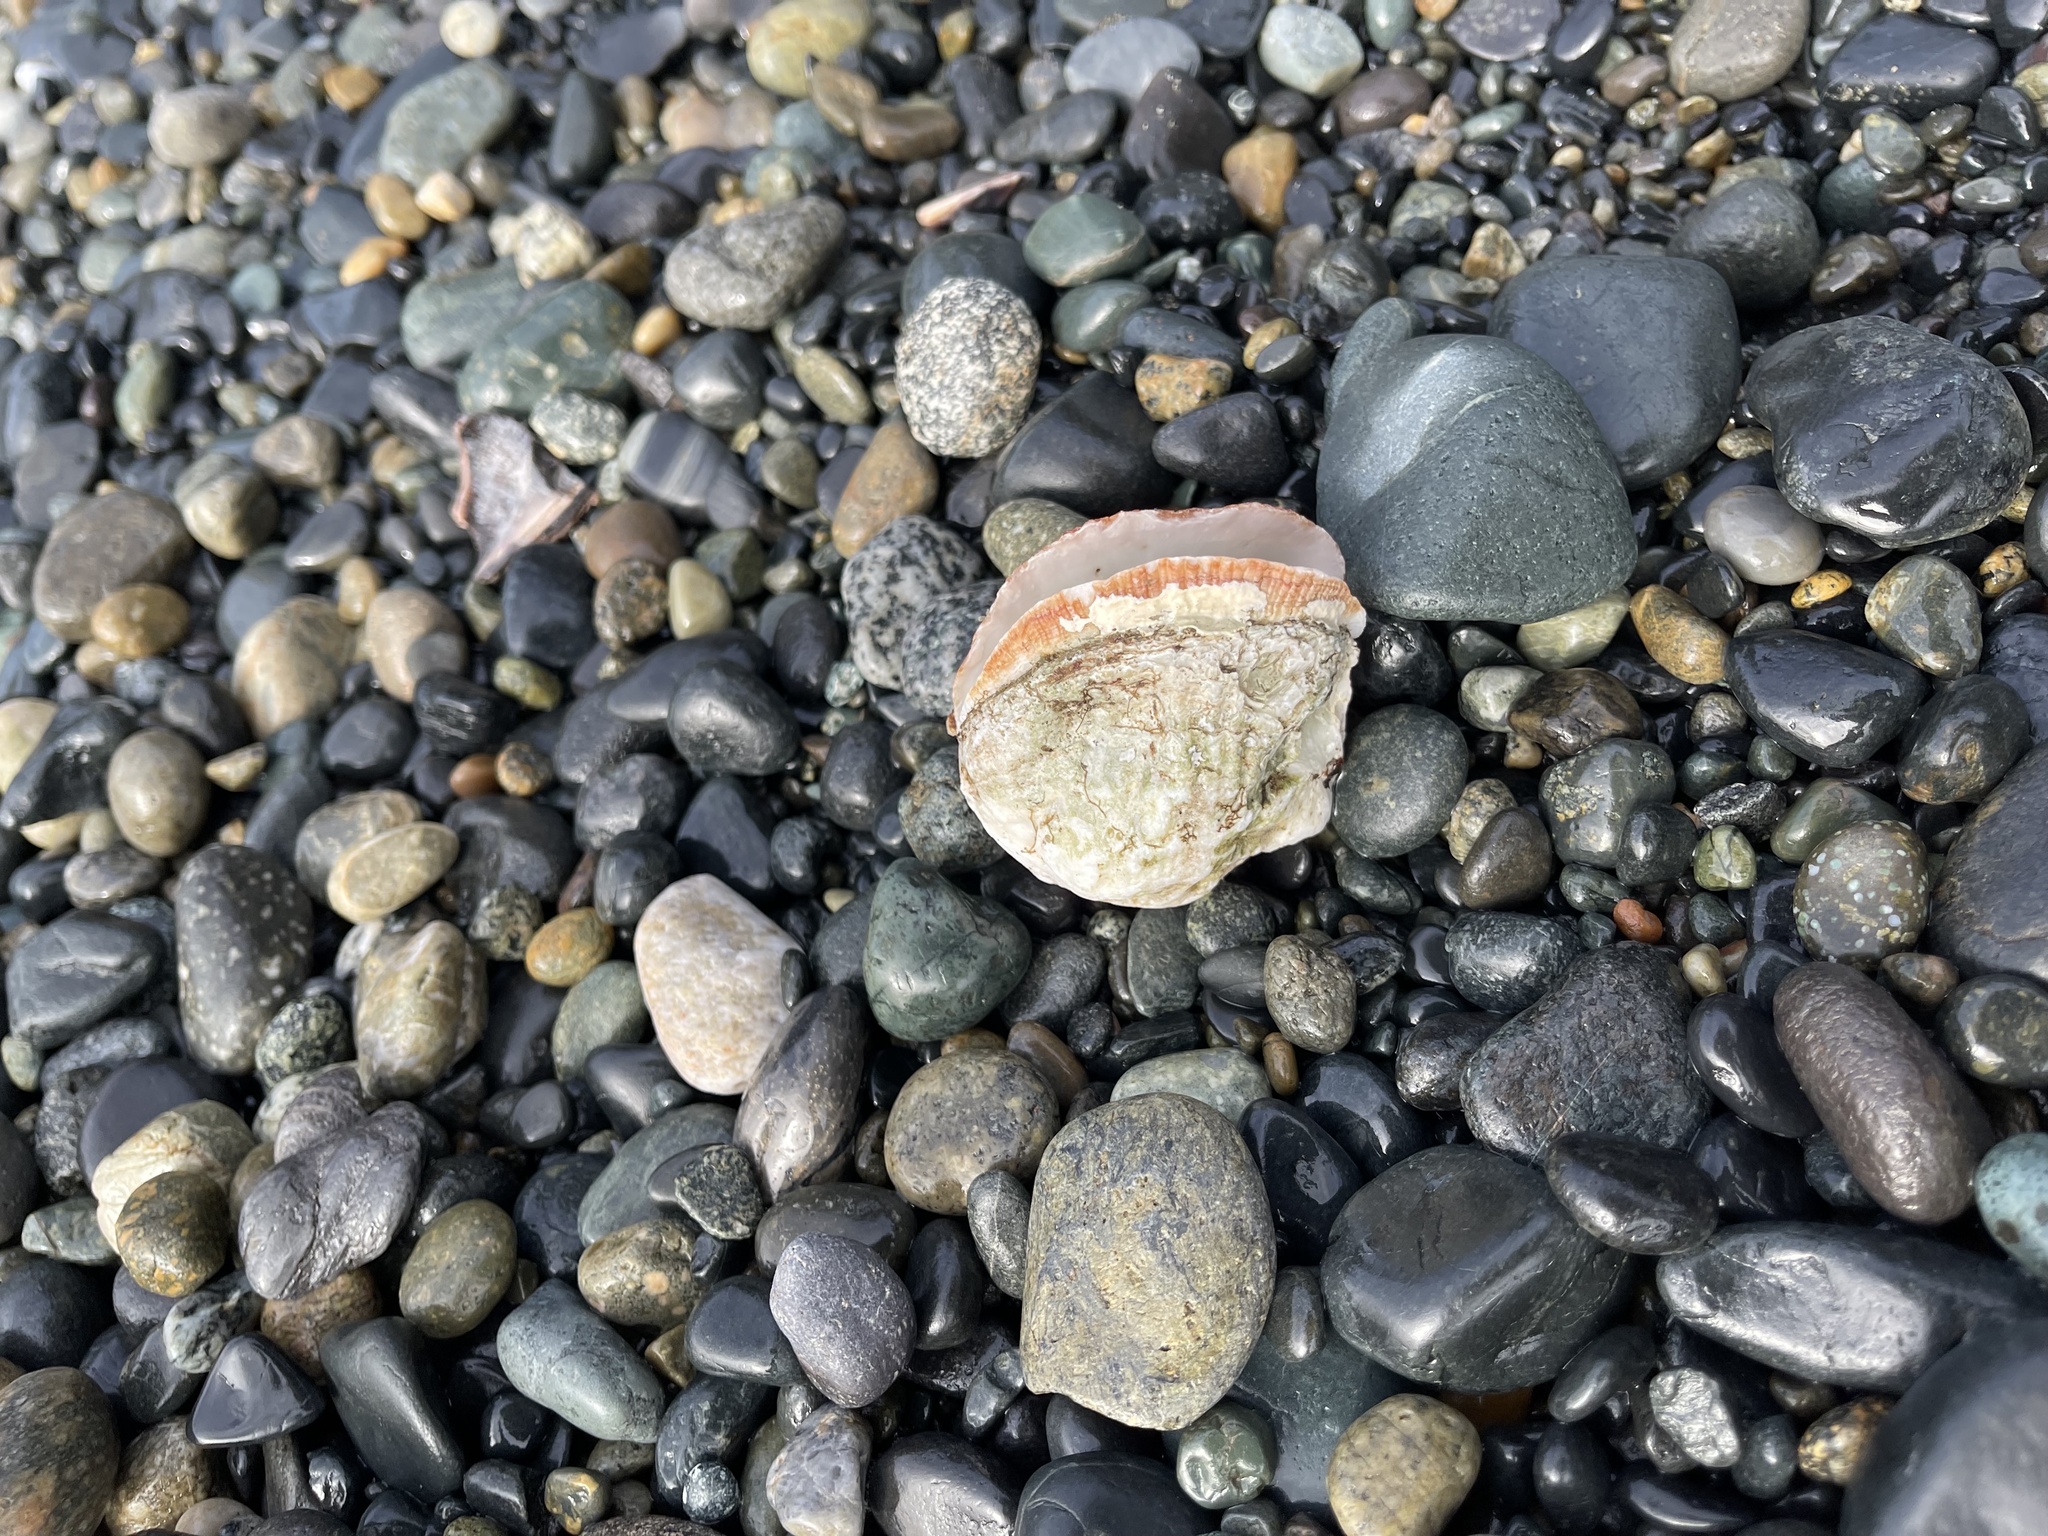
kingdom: Animalia
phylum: Mollusca
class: Bivalvia
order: Pectinida
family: Pectinidae
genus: Crassadoma
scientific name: Crassadoma gigantea
